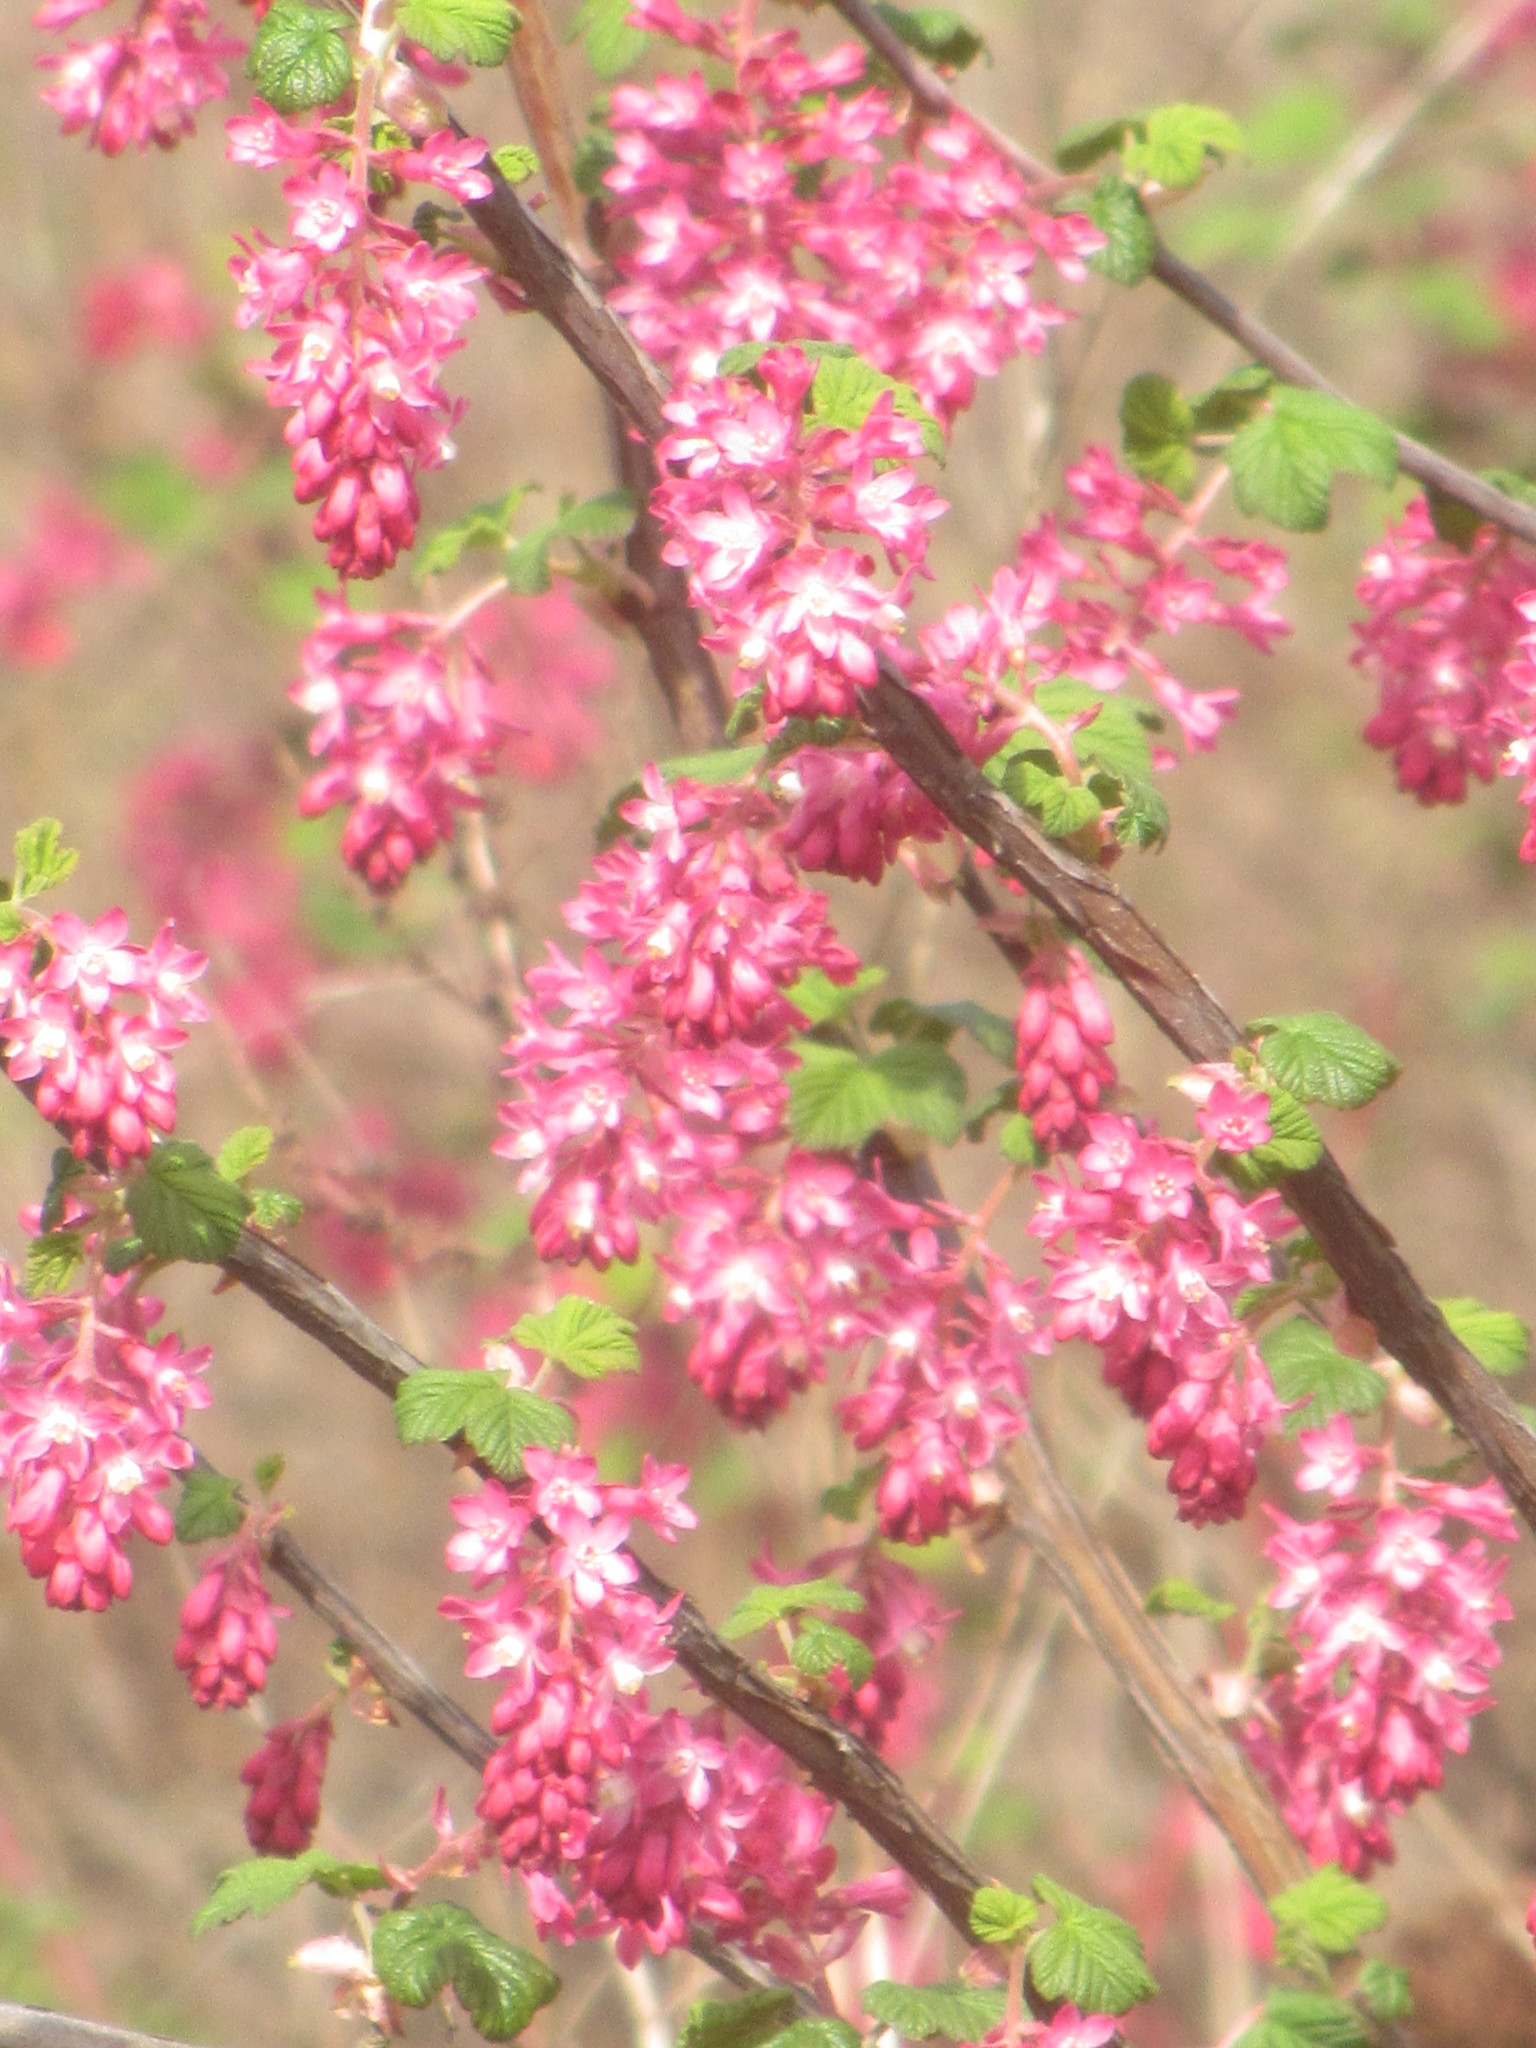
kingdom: Plantae
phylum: Tracheophyta
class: Magnoliopsida
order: Saxifragales
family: Grossulariaceae
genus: Ribes
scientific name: Ribes sanguineum
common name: Flowering currant
